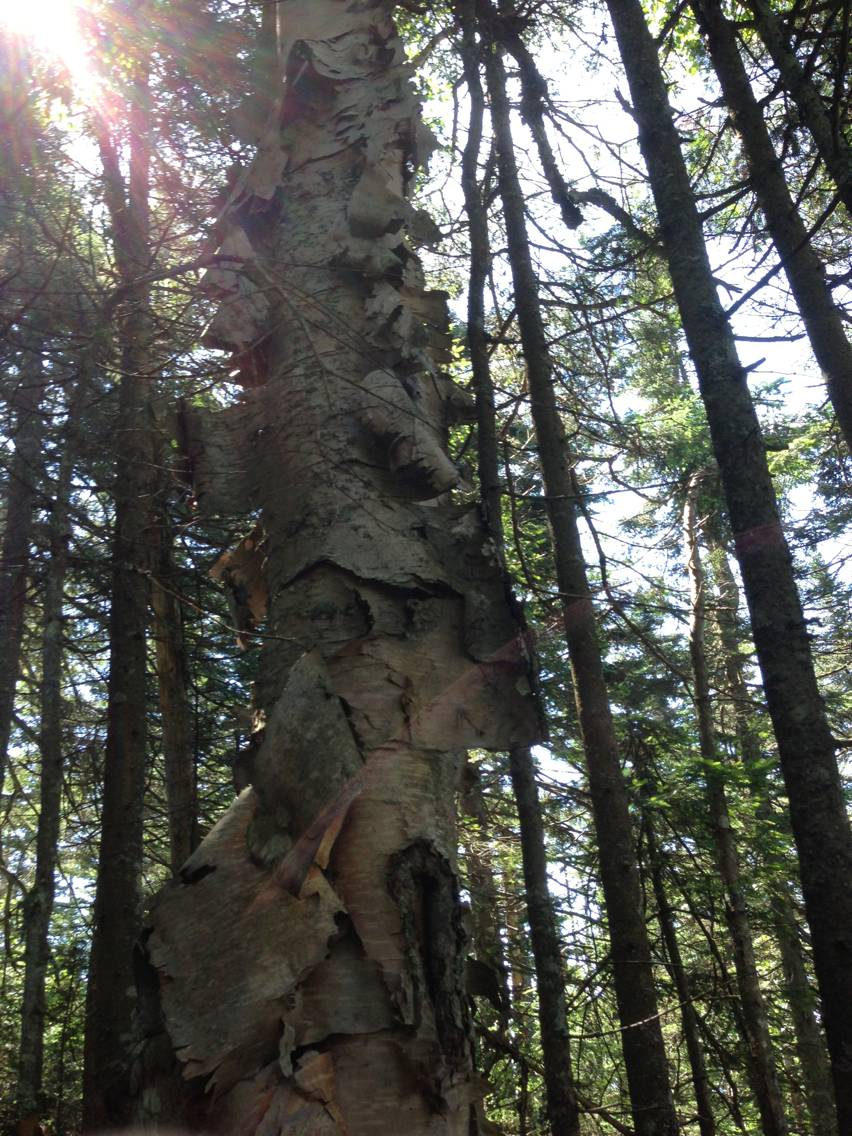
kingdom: Plantae
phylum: Tracheophyta
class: Magnoliopsida
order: Fagales
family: Betulaceae
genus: Betula
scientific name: Betula cordifolia
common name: Mountain white birch
